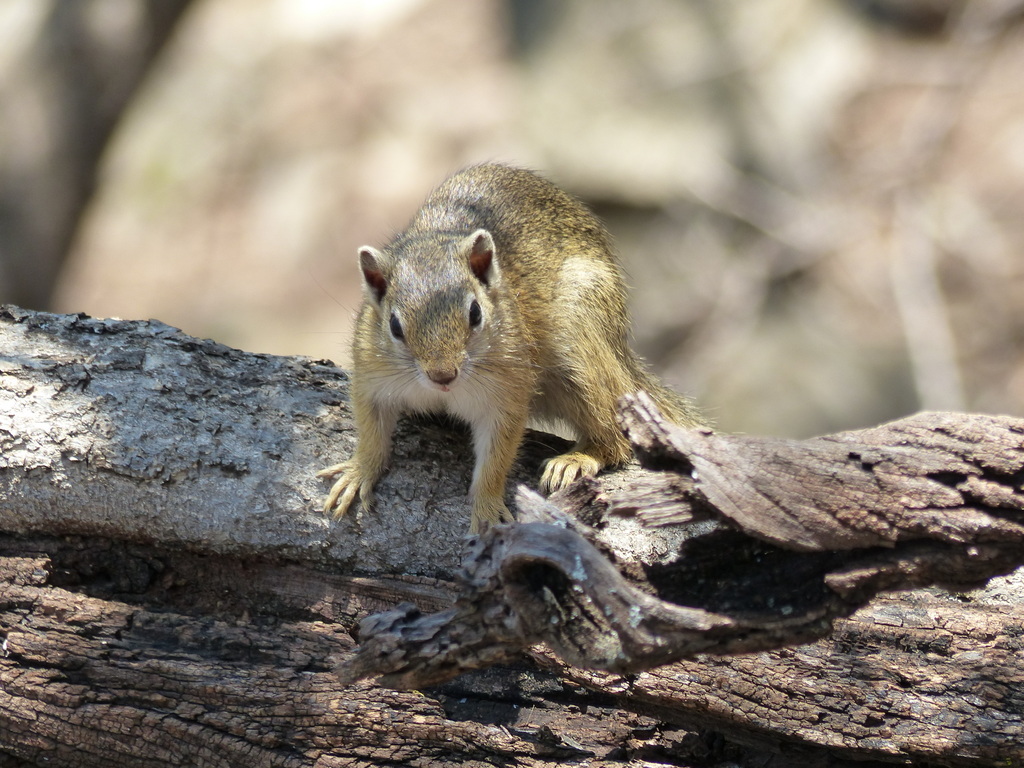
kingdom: Animalia
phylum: Chordata
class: Mammalia
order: Rodentia
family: Sciuridae
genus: Paraxerus
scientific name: Paraxerus cepapi
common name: Smith's bush squirrel
